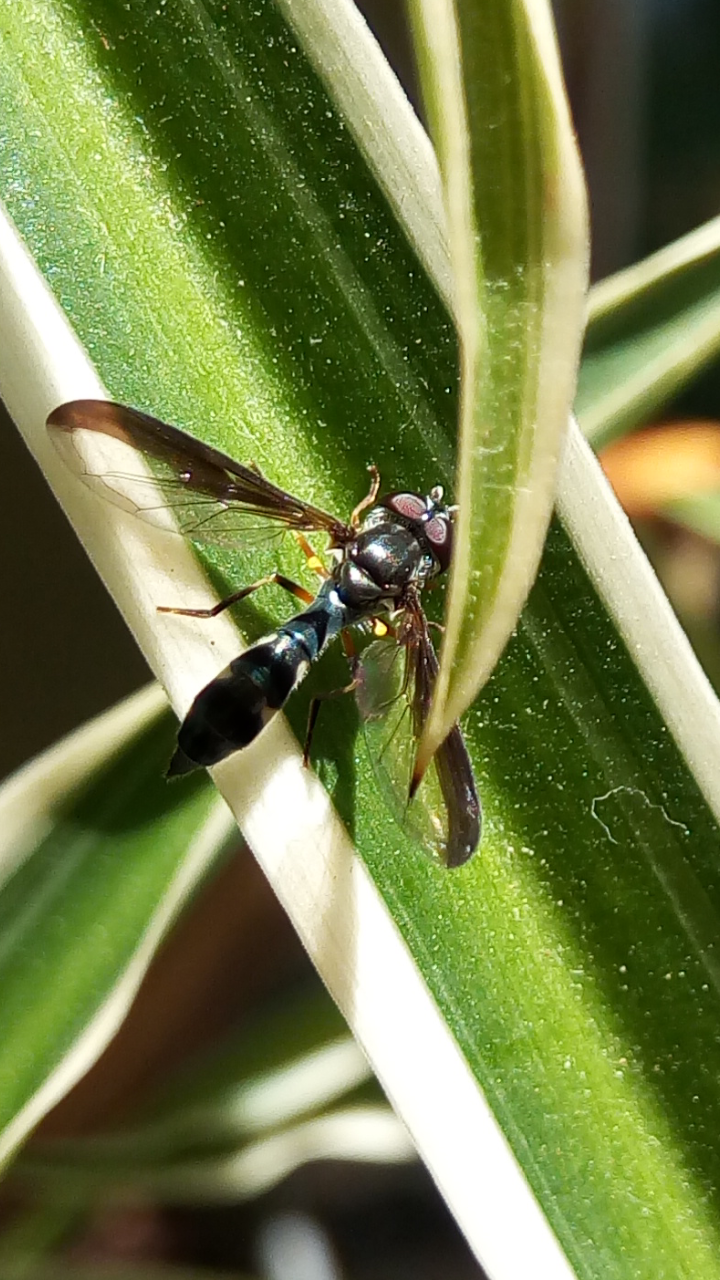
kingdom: Animalia
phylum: Arthropoda
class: Insecta
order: Diptera
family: Syrphidae
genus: Ocyptamus
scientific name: Ocyptamus costatus
